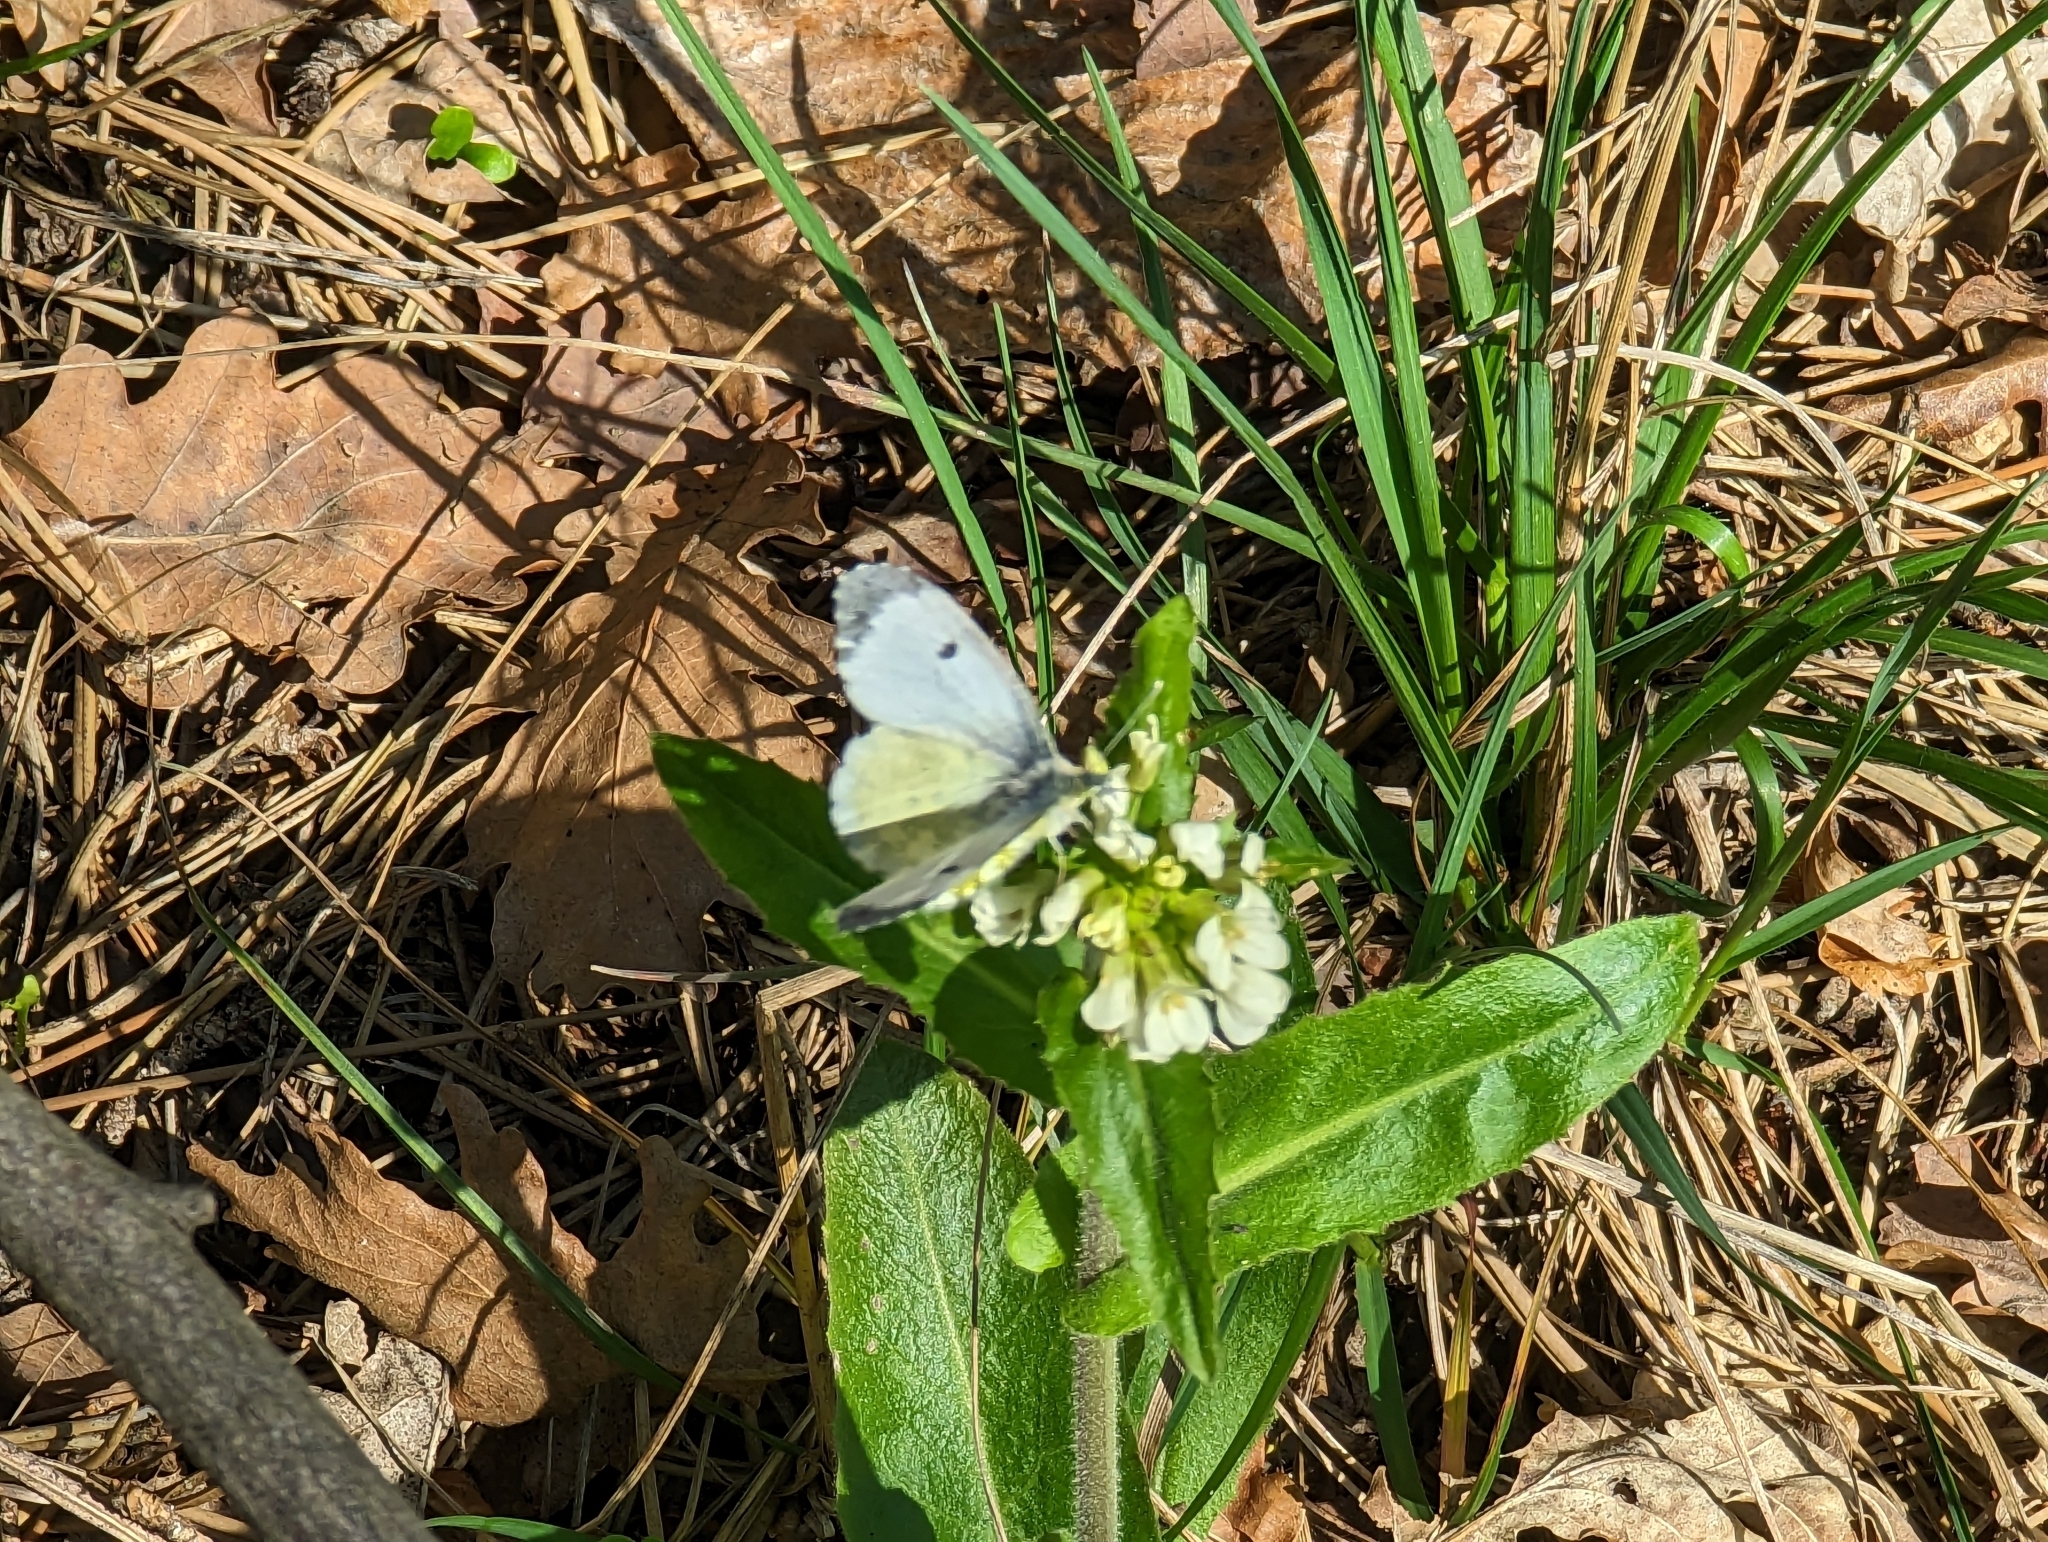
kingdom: Animalia
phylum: Arthropoda
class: Insecta
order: Lepidoptera
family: Pieridae
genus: Anthocharis
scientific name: Anthocharis cardamines
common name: Orange-tip
